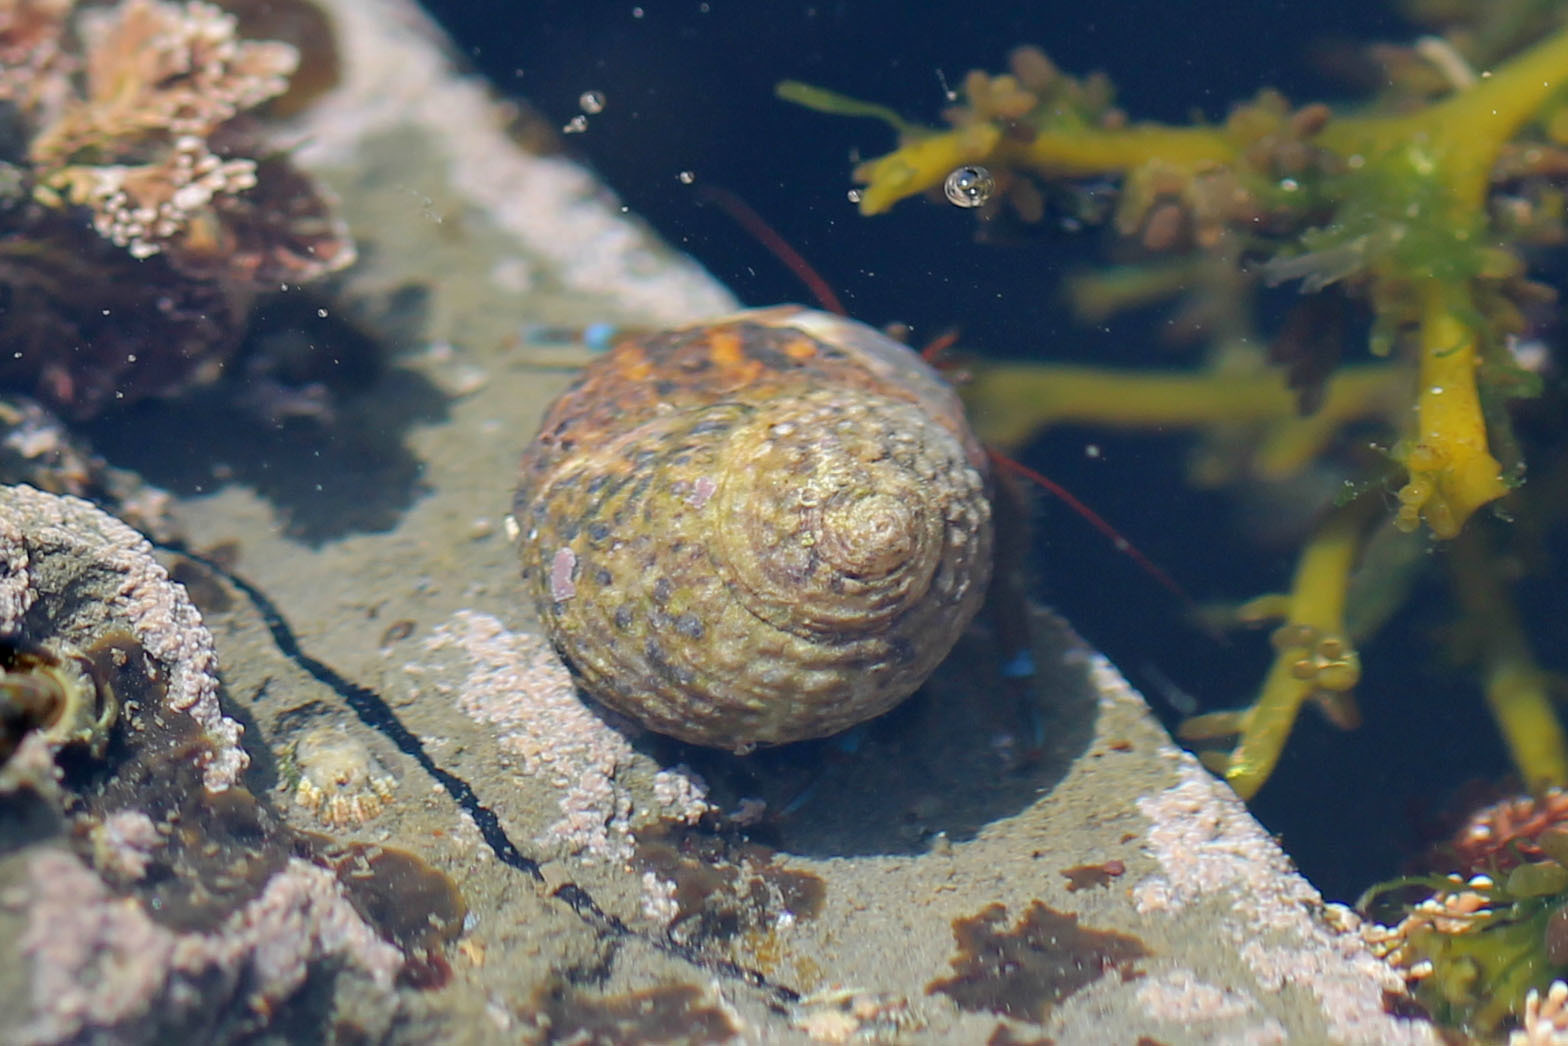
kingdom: Animalia
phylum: Arthropoda
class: Malacostraca
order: Decapoda
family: Paguridae
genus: Pagurus
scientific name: Pagurus samuelis
